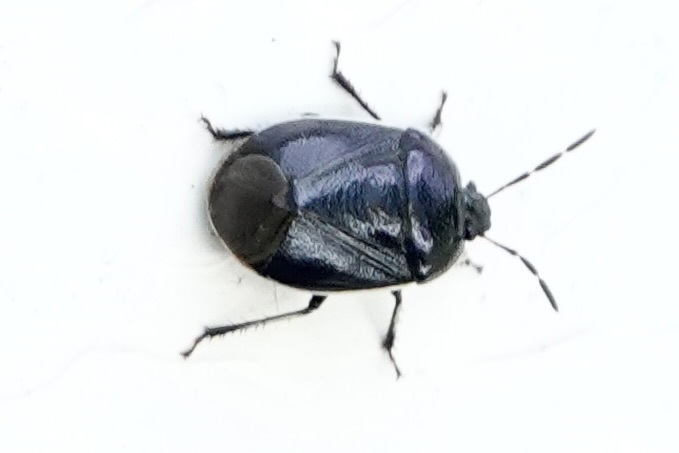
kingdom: Animalia
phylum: Arthropoda
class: Insecta
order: Hemiptera
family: Cydnidae
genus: Sehirus
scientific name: Sehirus cinctus
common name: White-margined burrower bug
